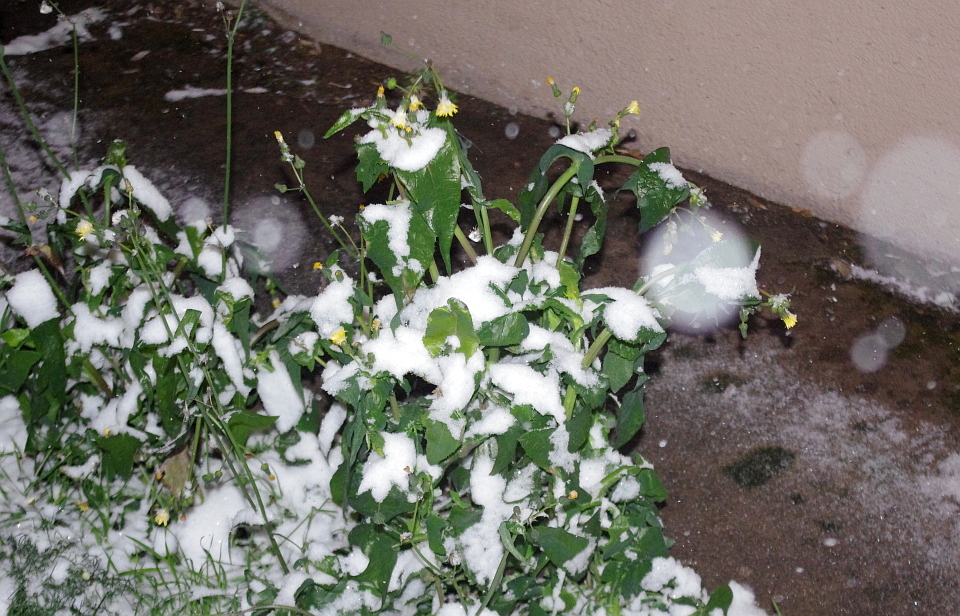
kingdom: Plantae
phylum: Tracheophyta
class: Magnoliopsida
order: Asterales
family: Asteraceae
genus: Sonchus
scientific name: Sonchus oleraceus
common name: Common sowthistle
